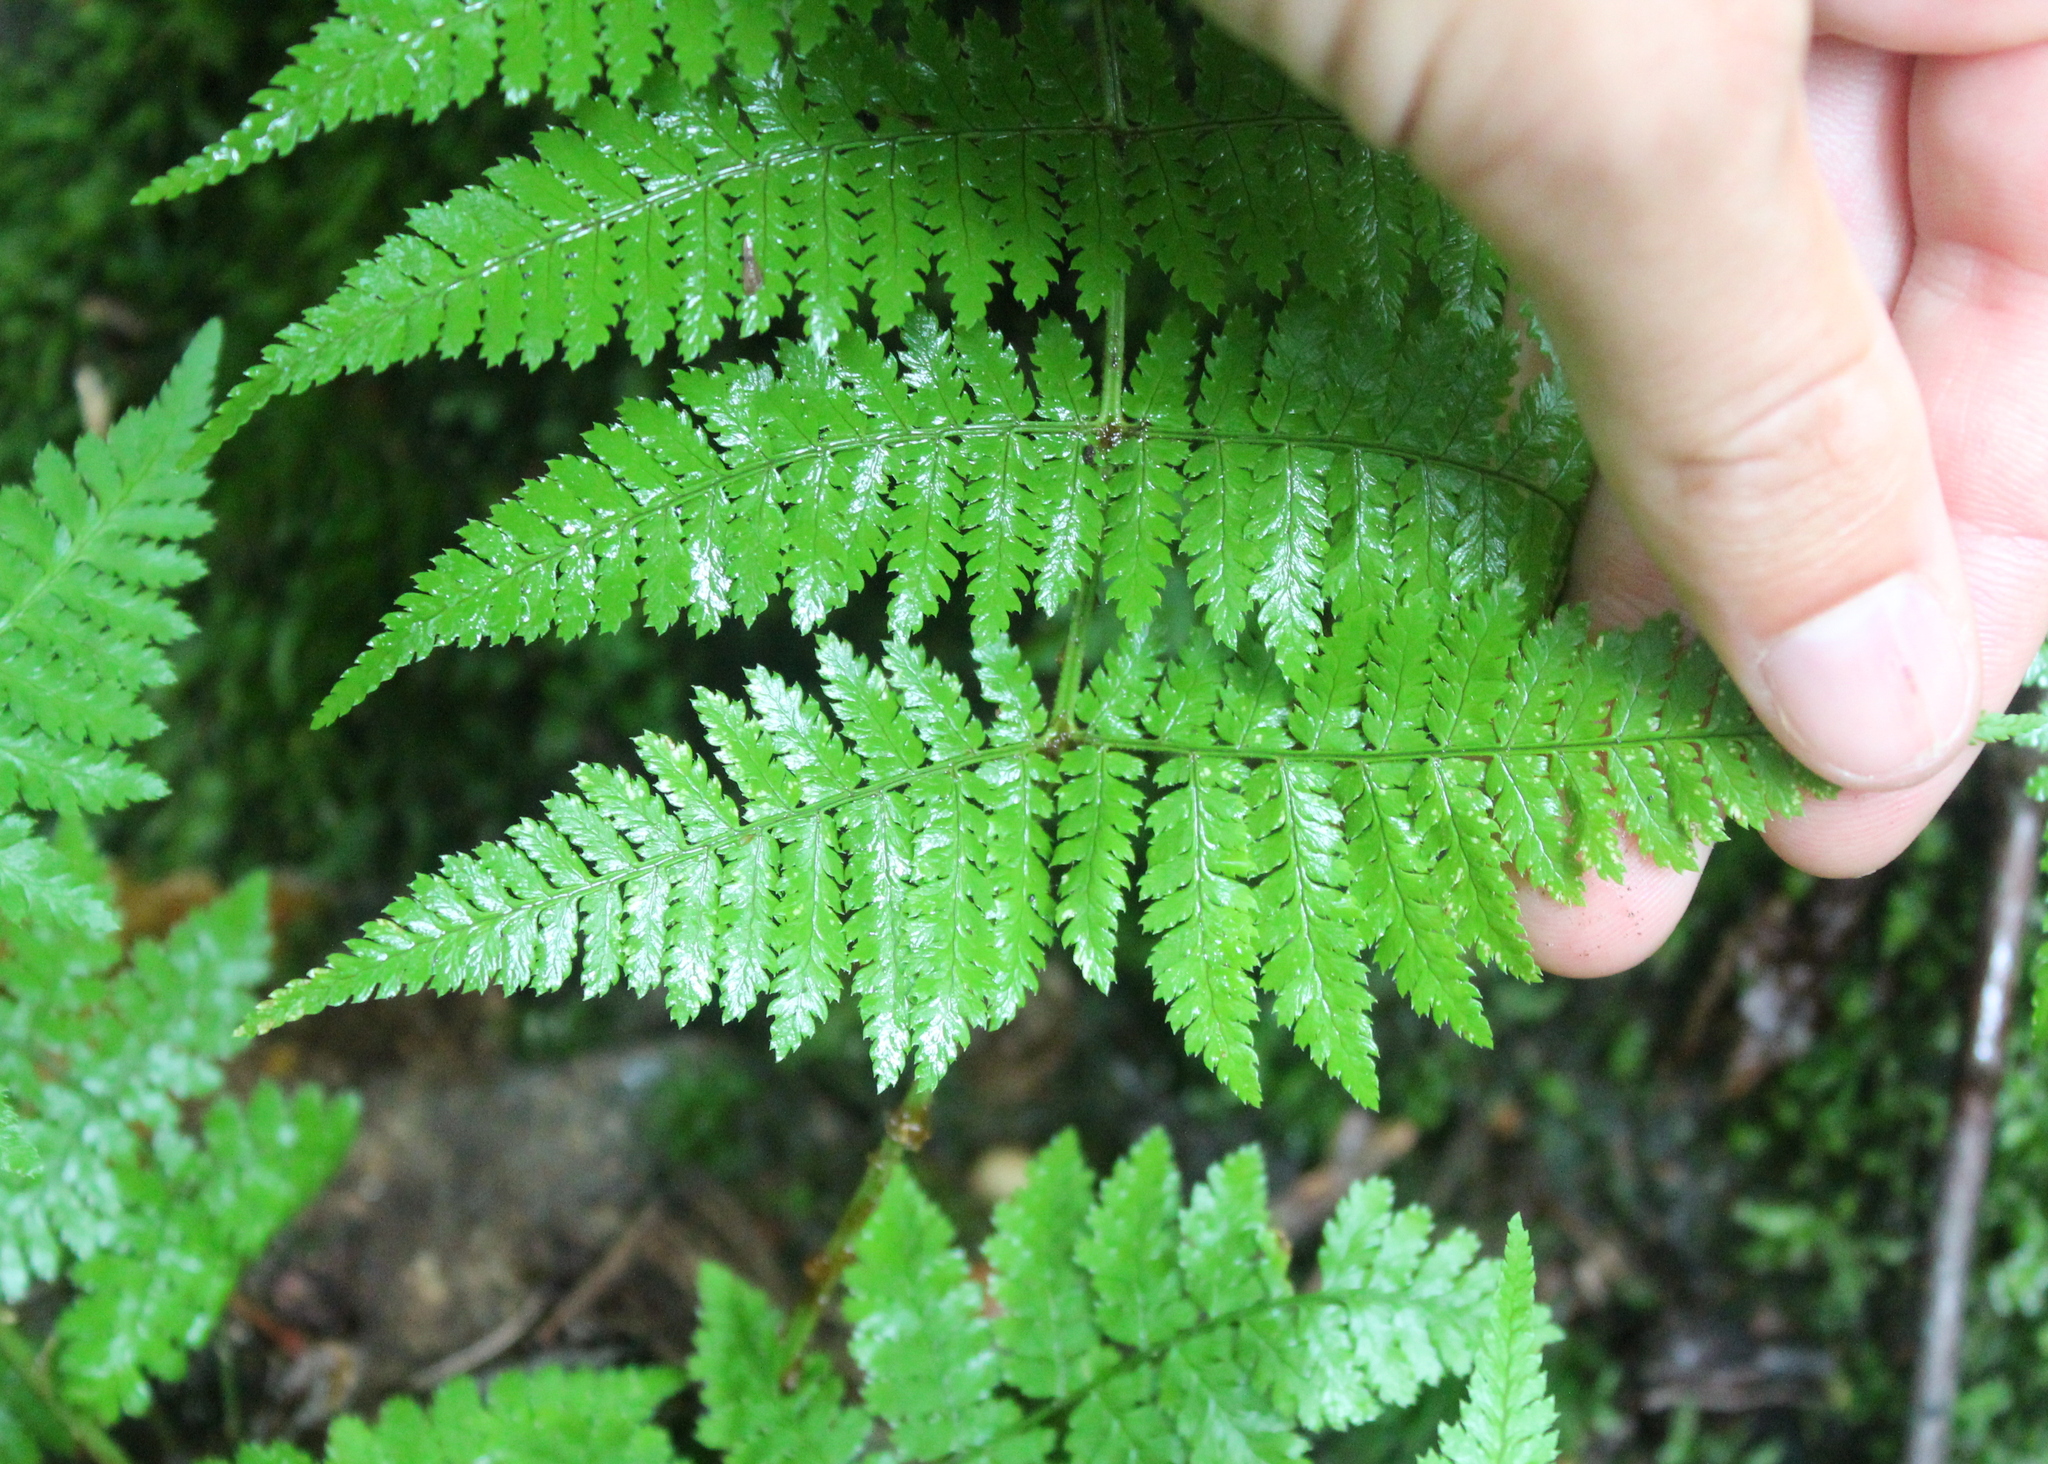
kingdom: Plantae
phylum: Tracheophyta
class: Polypodiopsida
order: Polypodiales
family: Dryopteridaceae
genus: Dryopteris
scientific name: Dryopteris intermedia
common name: Evergreen wood fern
